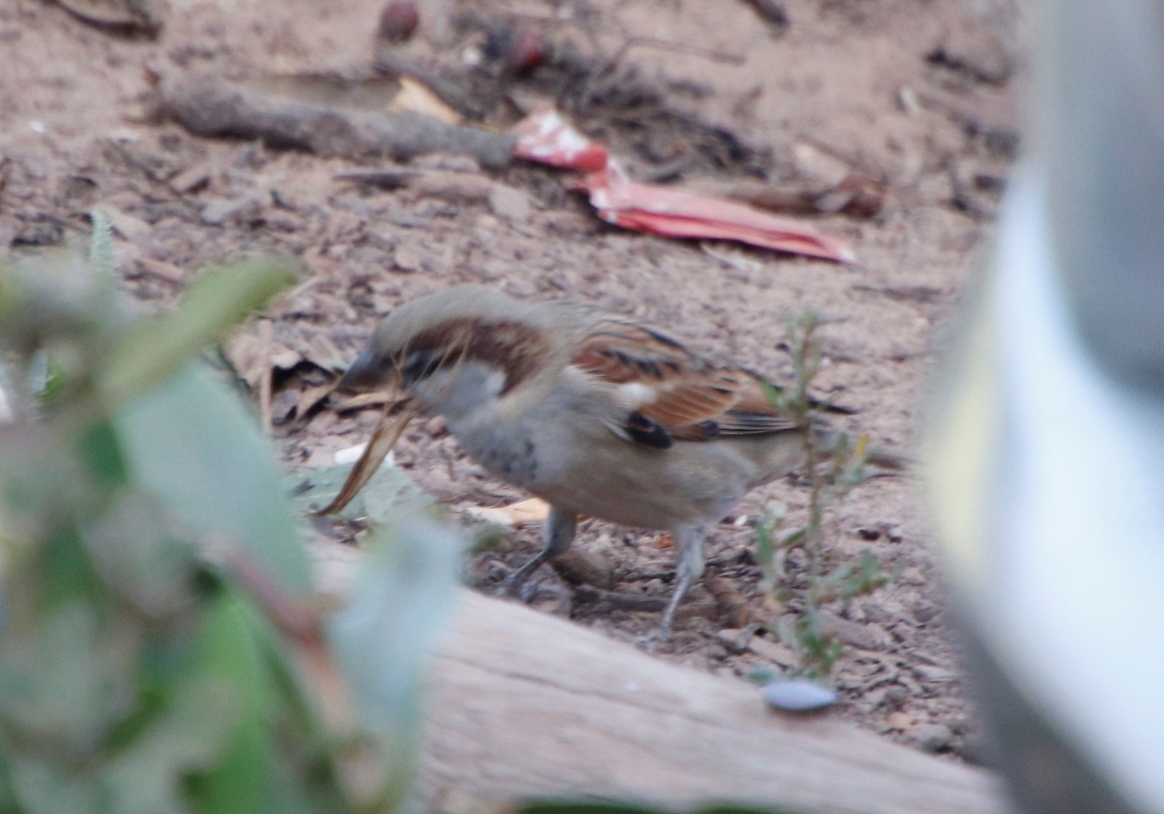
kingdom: Animalia
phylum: Chordata
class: Aves
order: Passeriformes
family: Passeridae
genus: Passer
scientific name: Passer domesticus
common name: House sparrow
